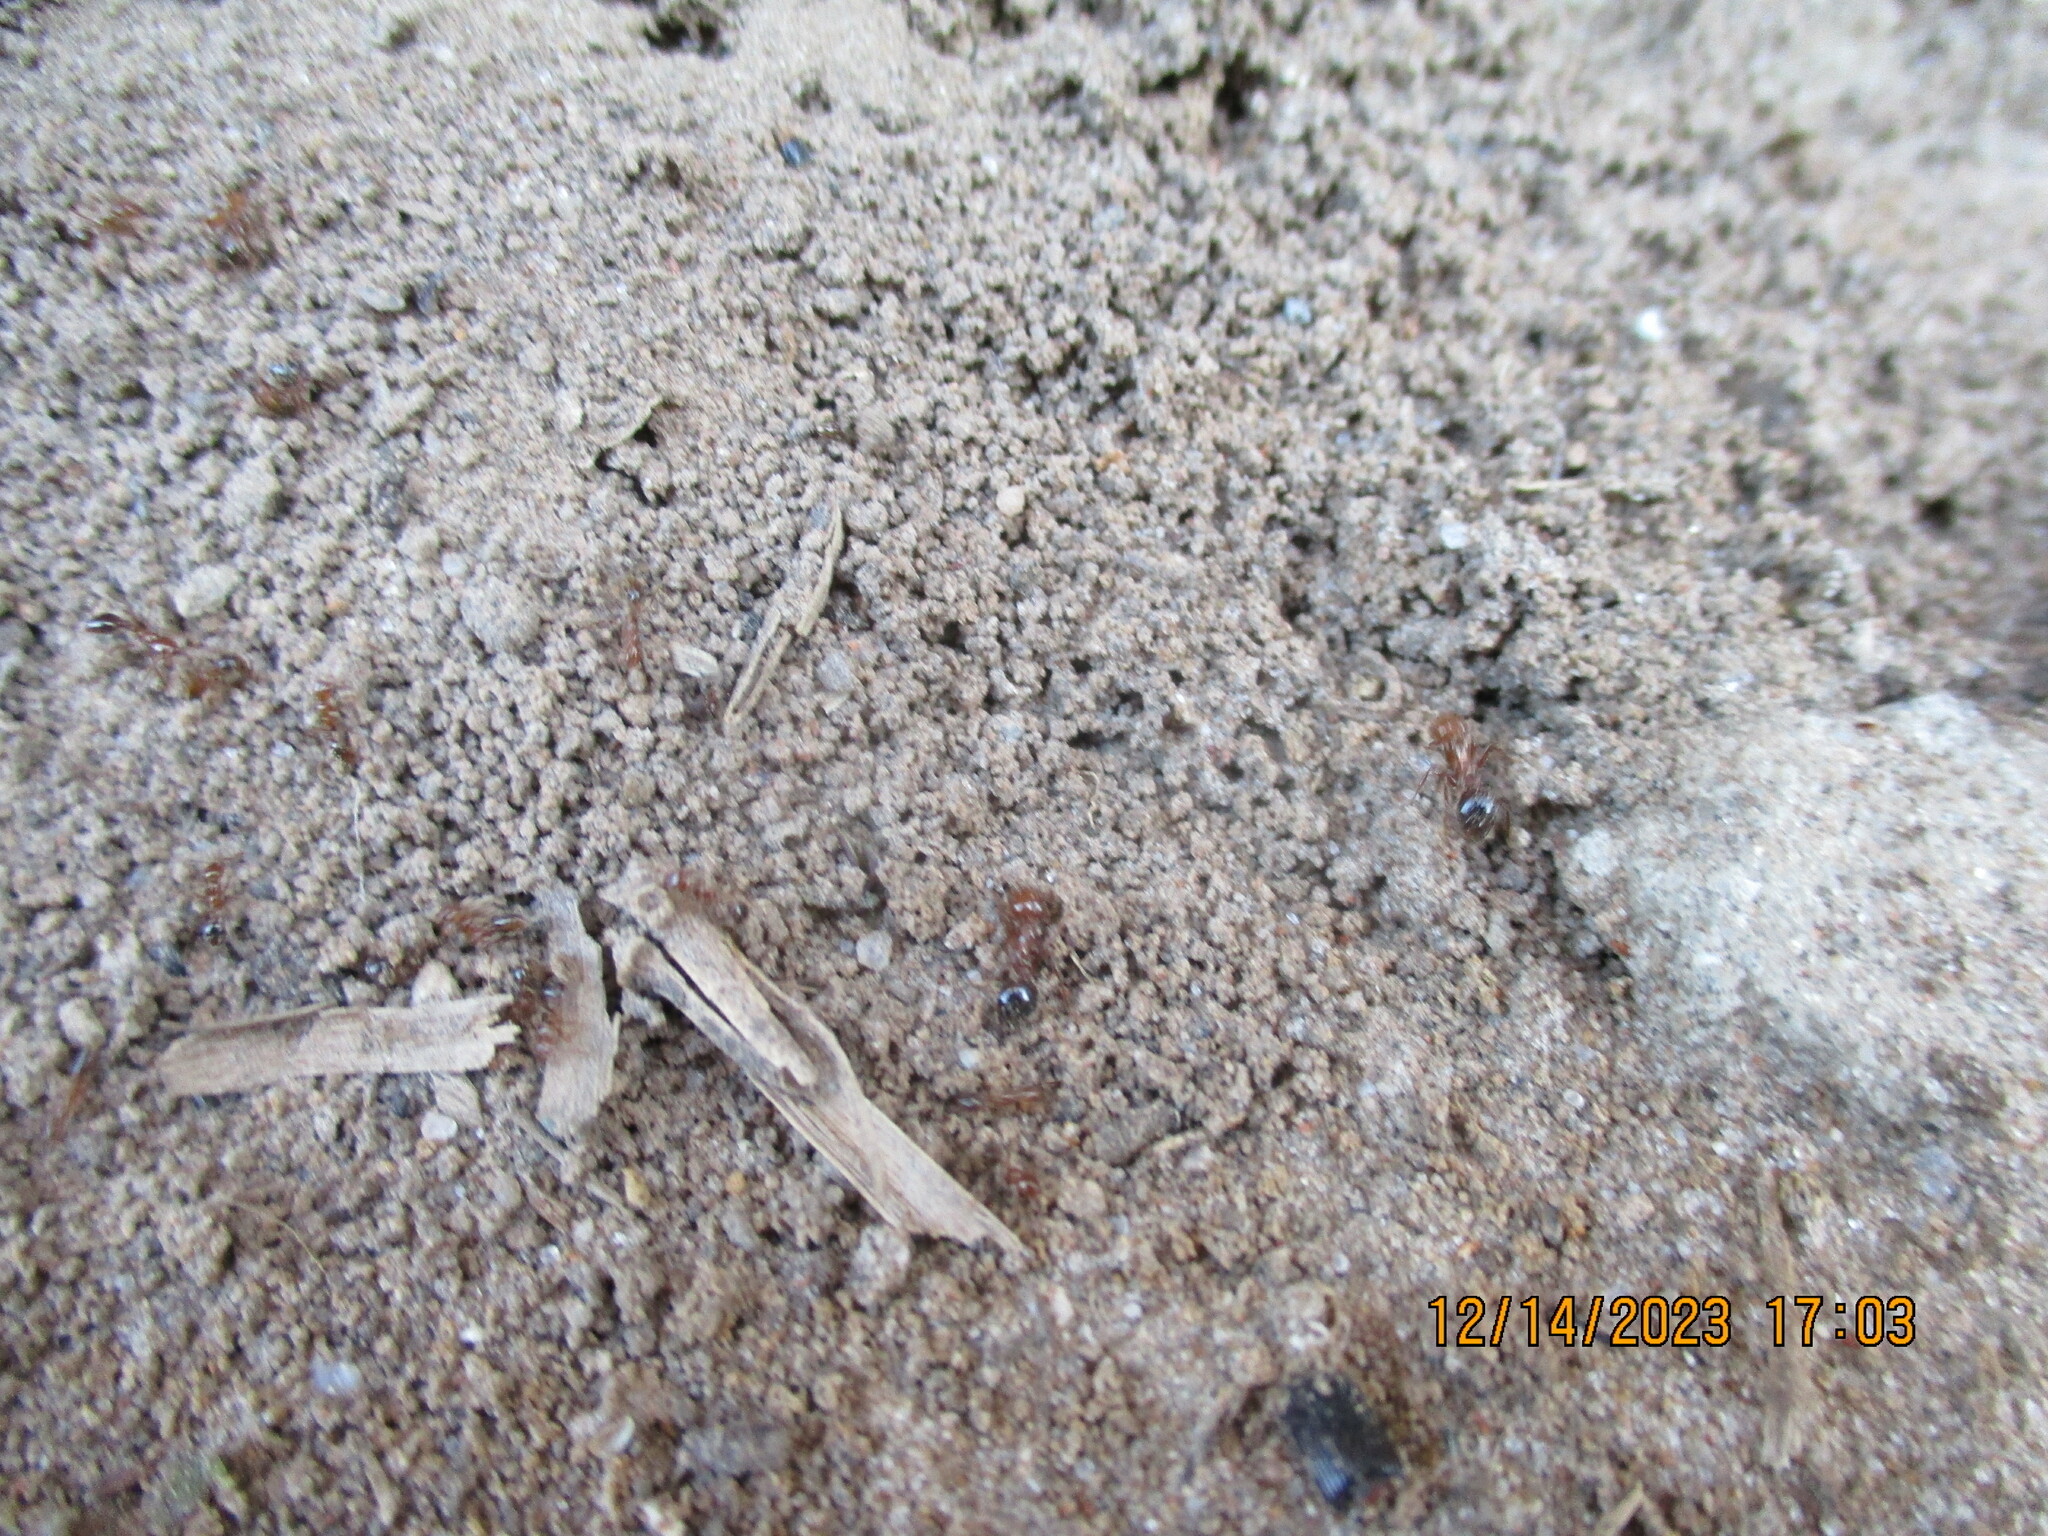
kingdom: Animalia
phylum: Arthropoda
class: Insecta
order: Hymenoptera
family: Formicidae
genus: Solenopsis
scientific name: Solenopsis invicta
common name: Red imported fire ant
